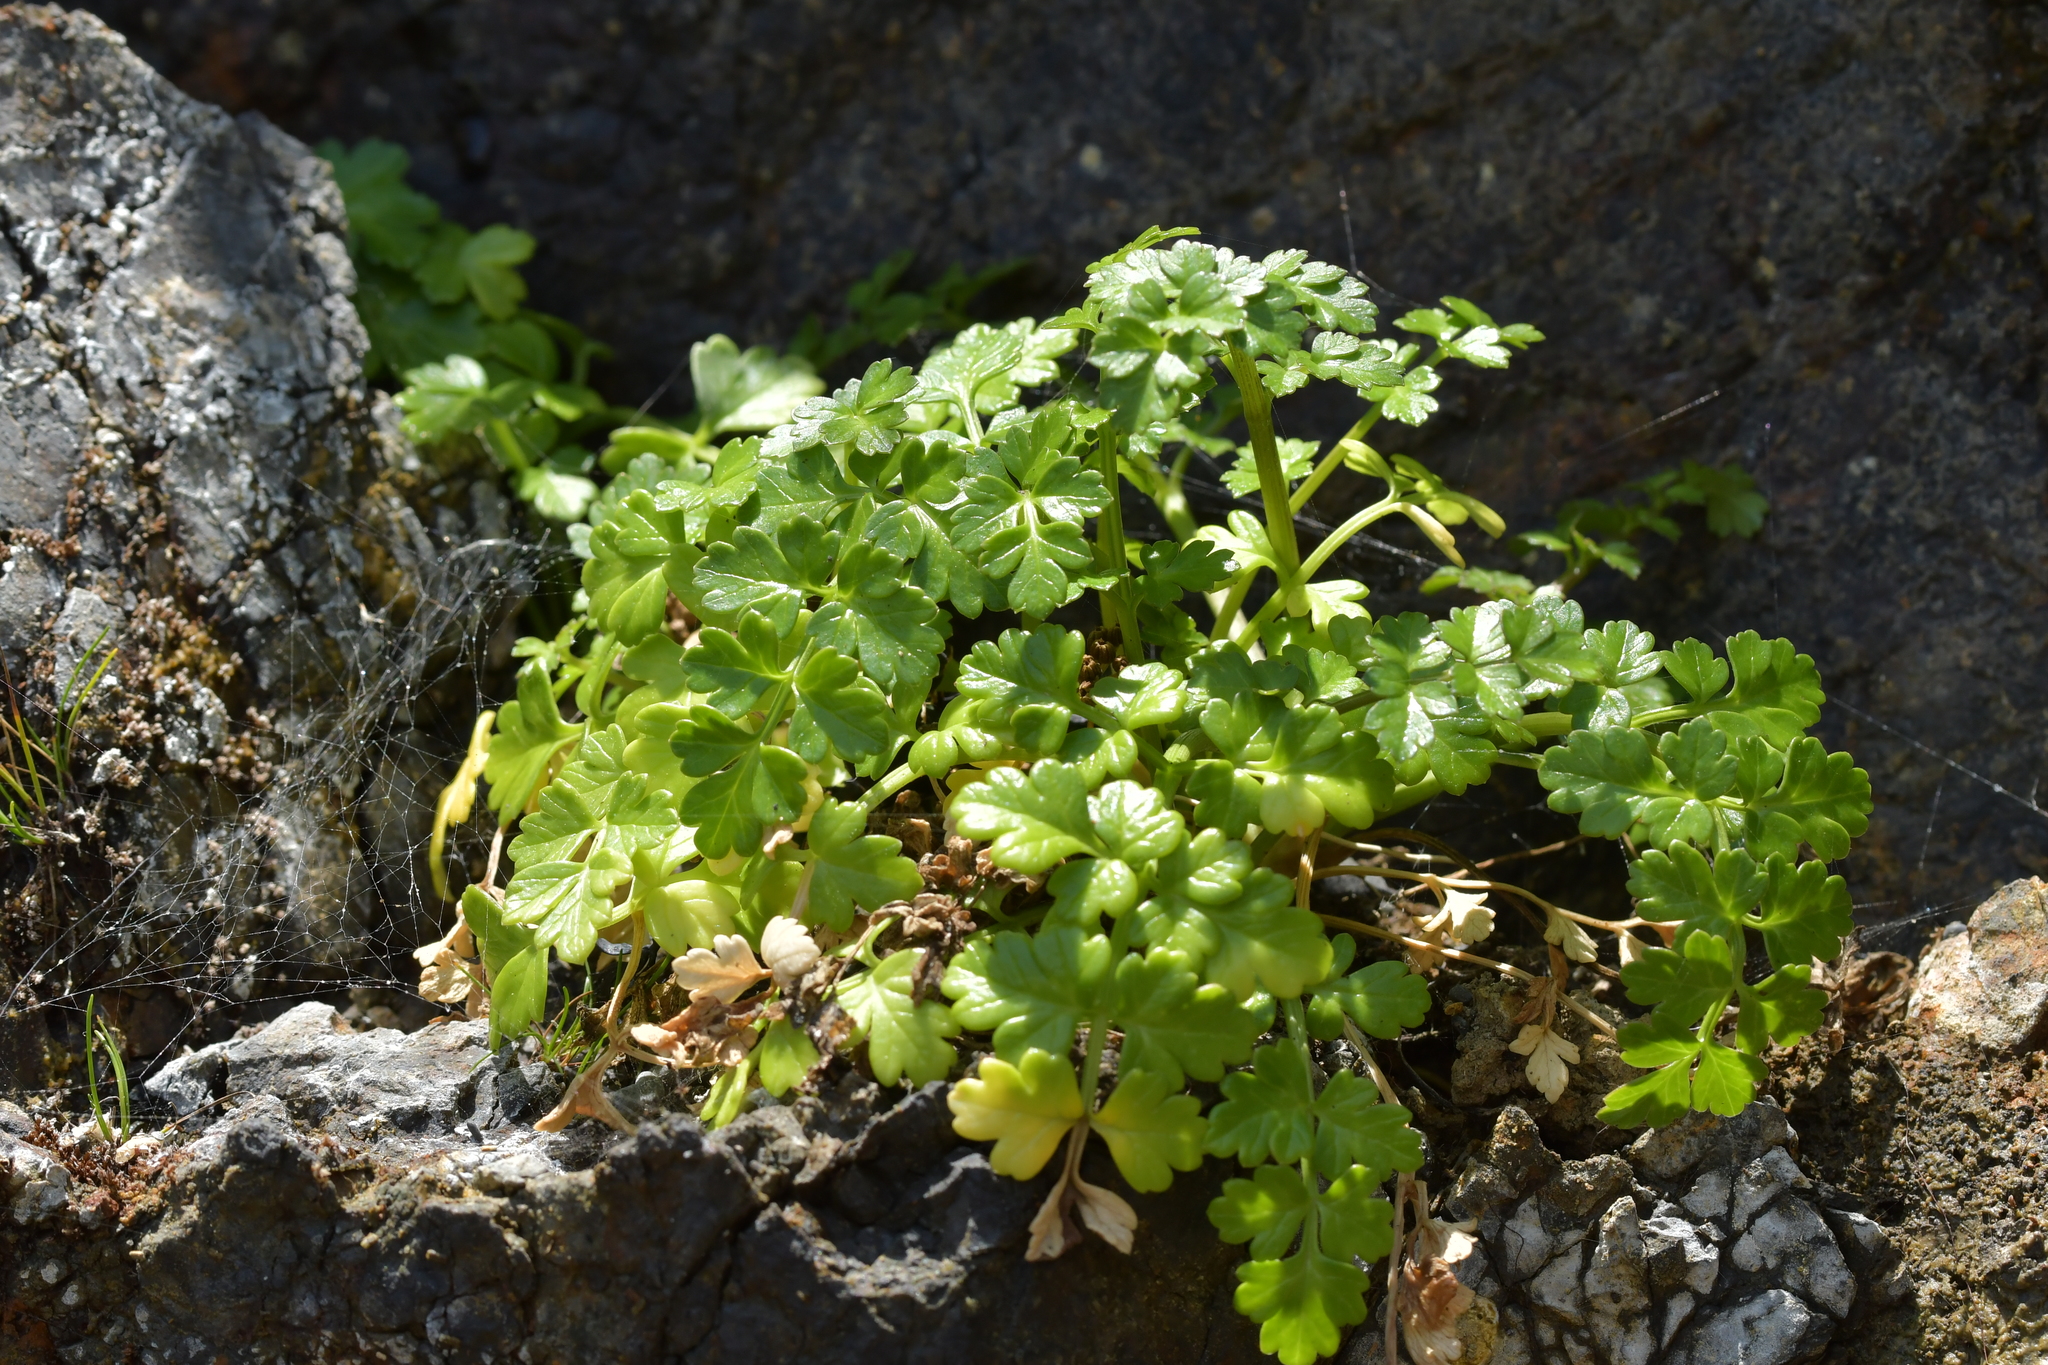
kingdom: Plantae
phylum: Tracheophyta
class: Magnoliopsida
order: Apiales
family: Apiaceae
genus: Apium
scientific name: Apium prostratum
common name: Prostrate marshwort
